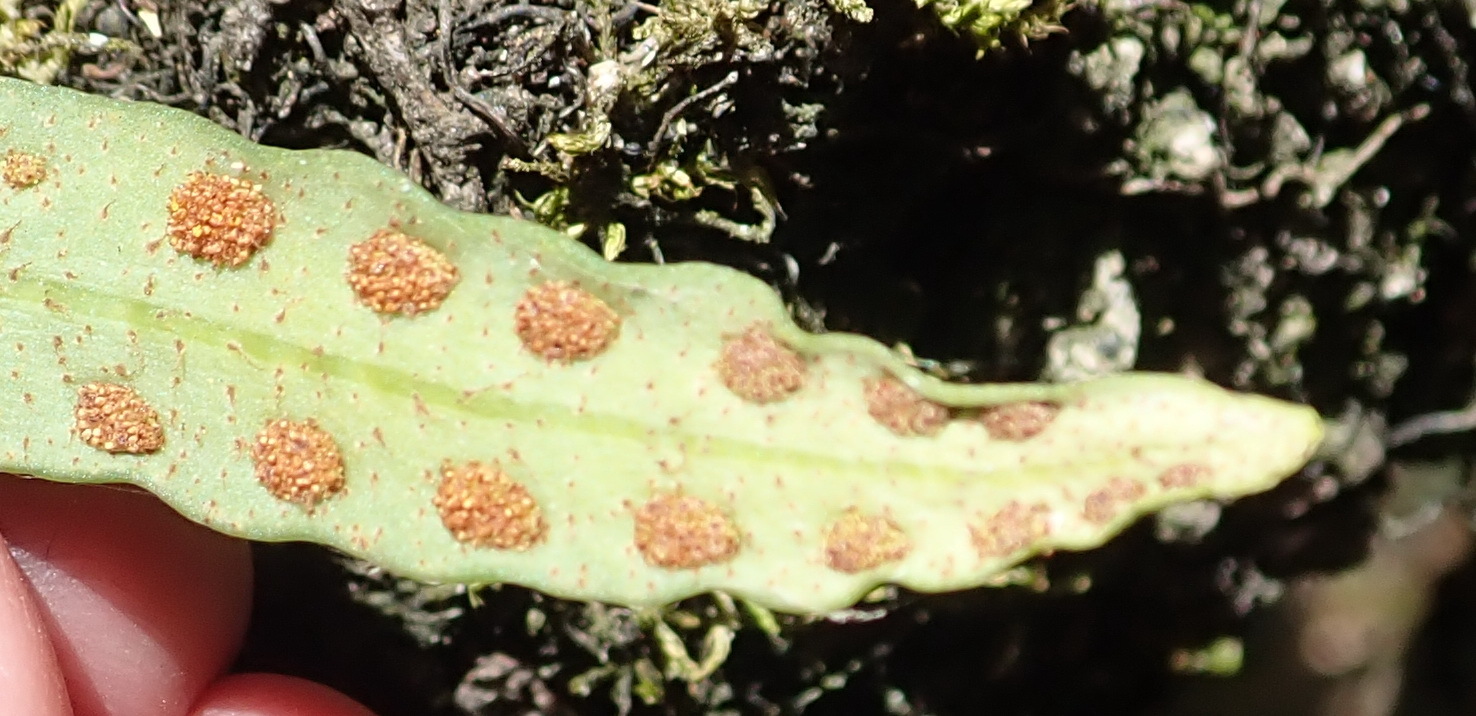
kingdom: Plantae
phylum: Tracheophyta
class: Polypodiopsida
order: Polypodiales
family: Polypodiaceae
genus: Pleopeltis
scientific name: Pleopeltis macrocarpa
